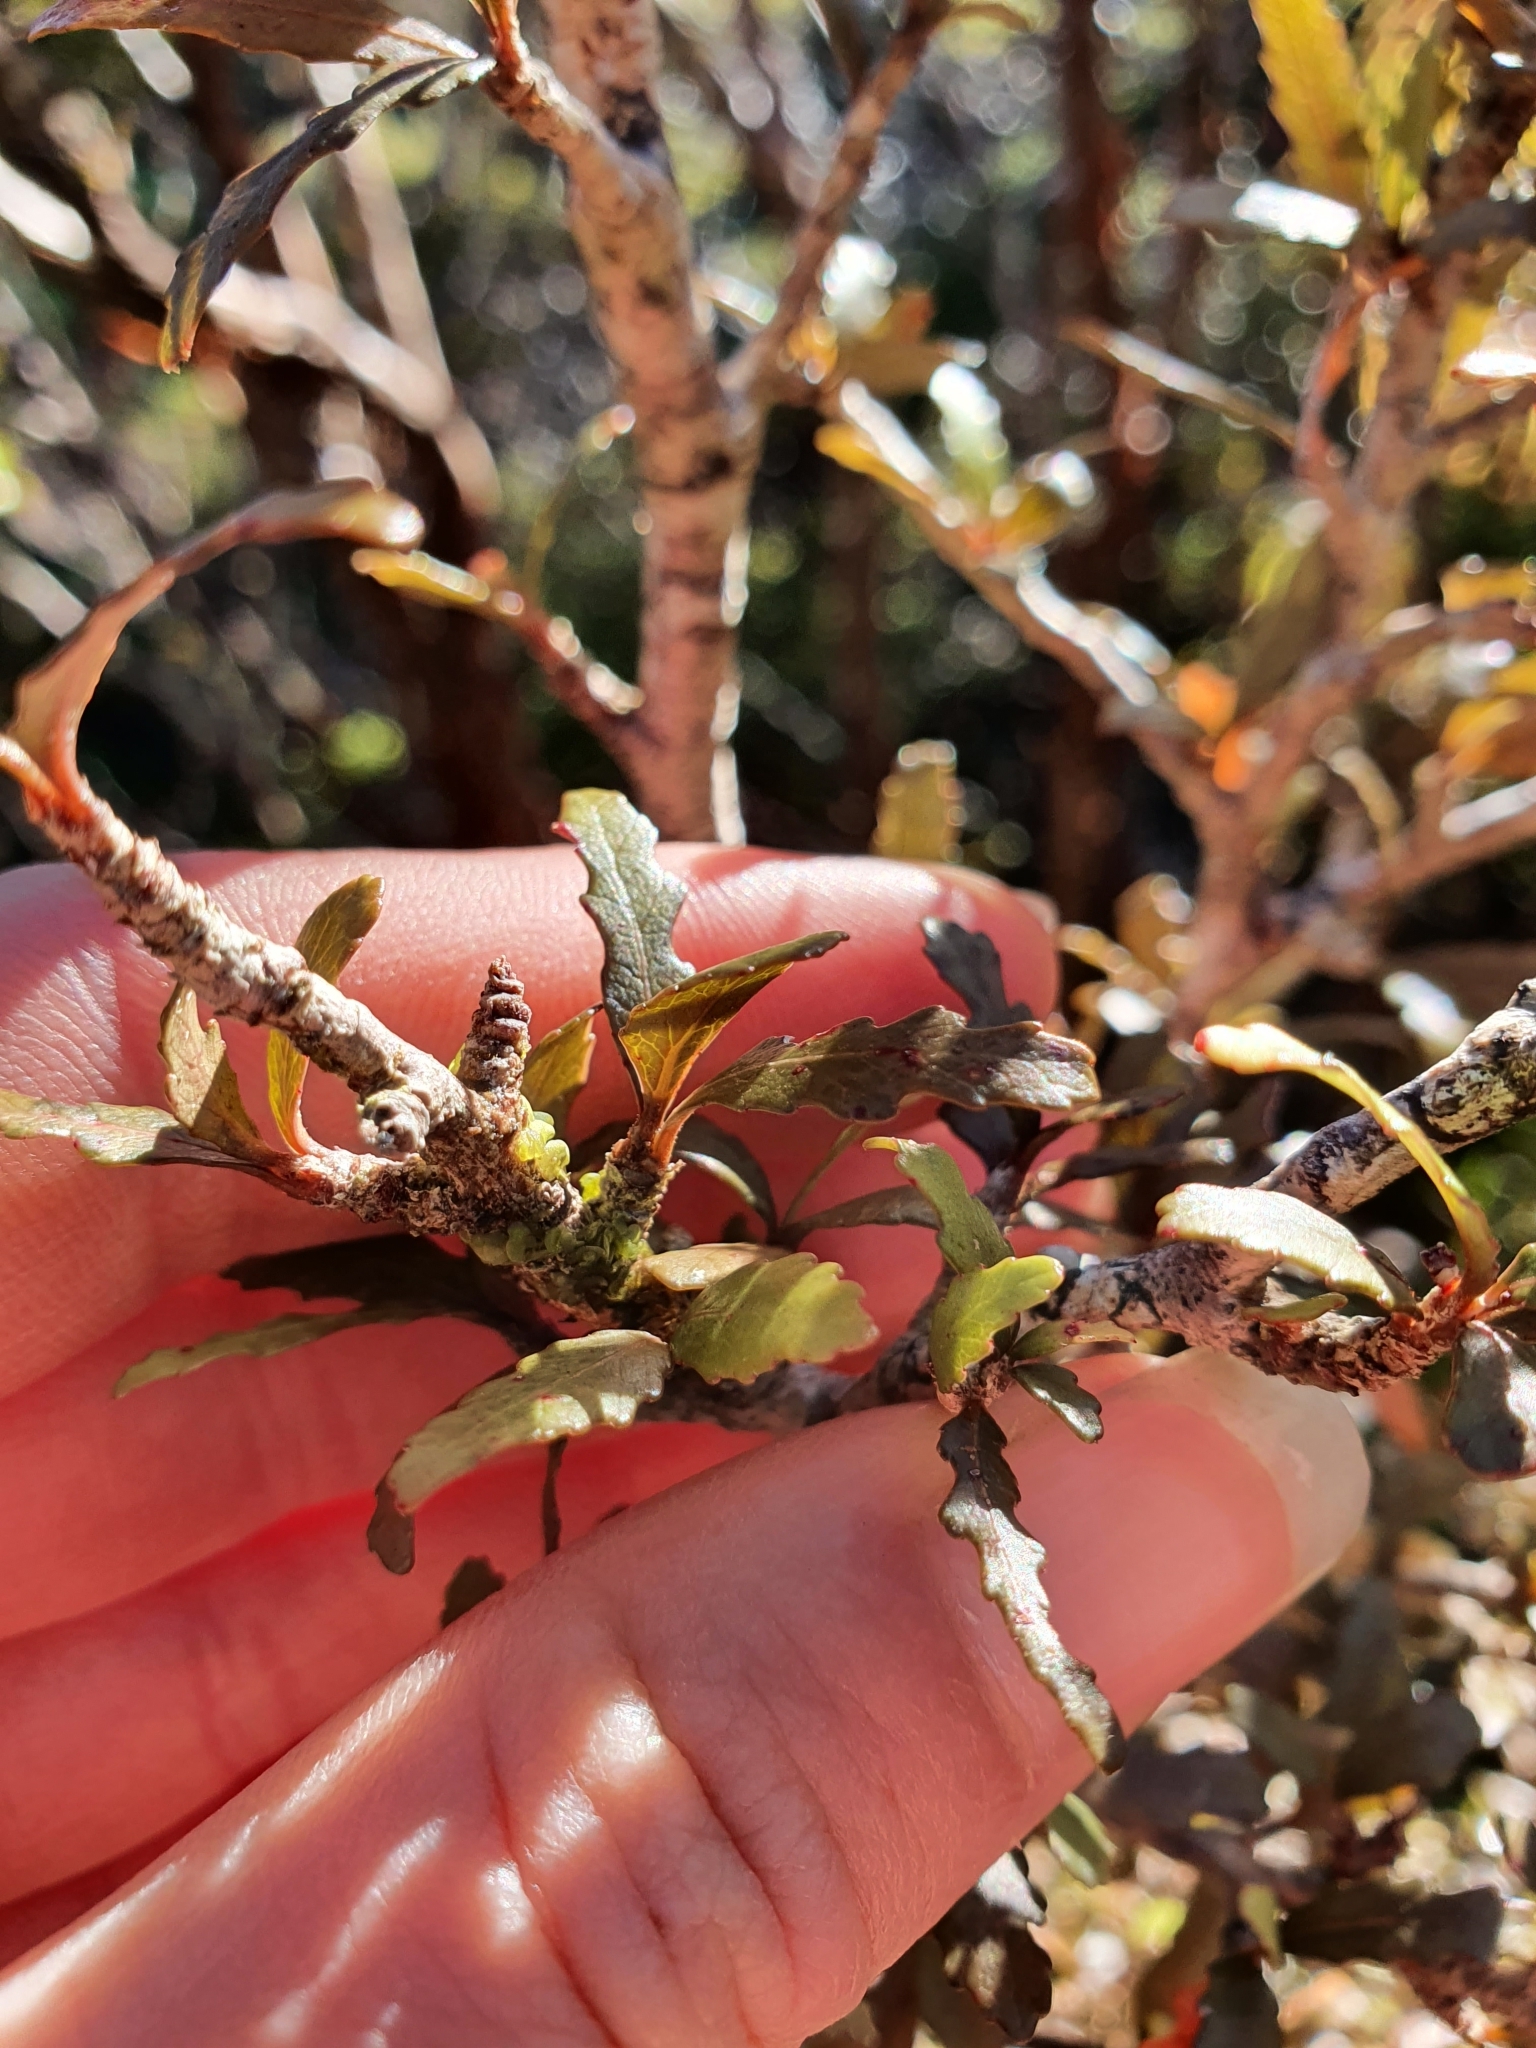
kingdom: Plantae
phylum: Tracheophyta
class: Magnoliopsida
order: Oxalidales
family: Elaeocarpaceae
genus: Elaeocarpus
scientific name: Elaeocarpus hookerianus
